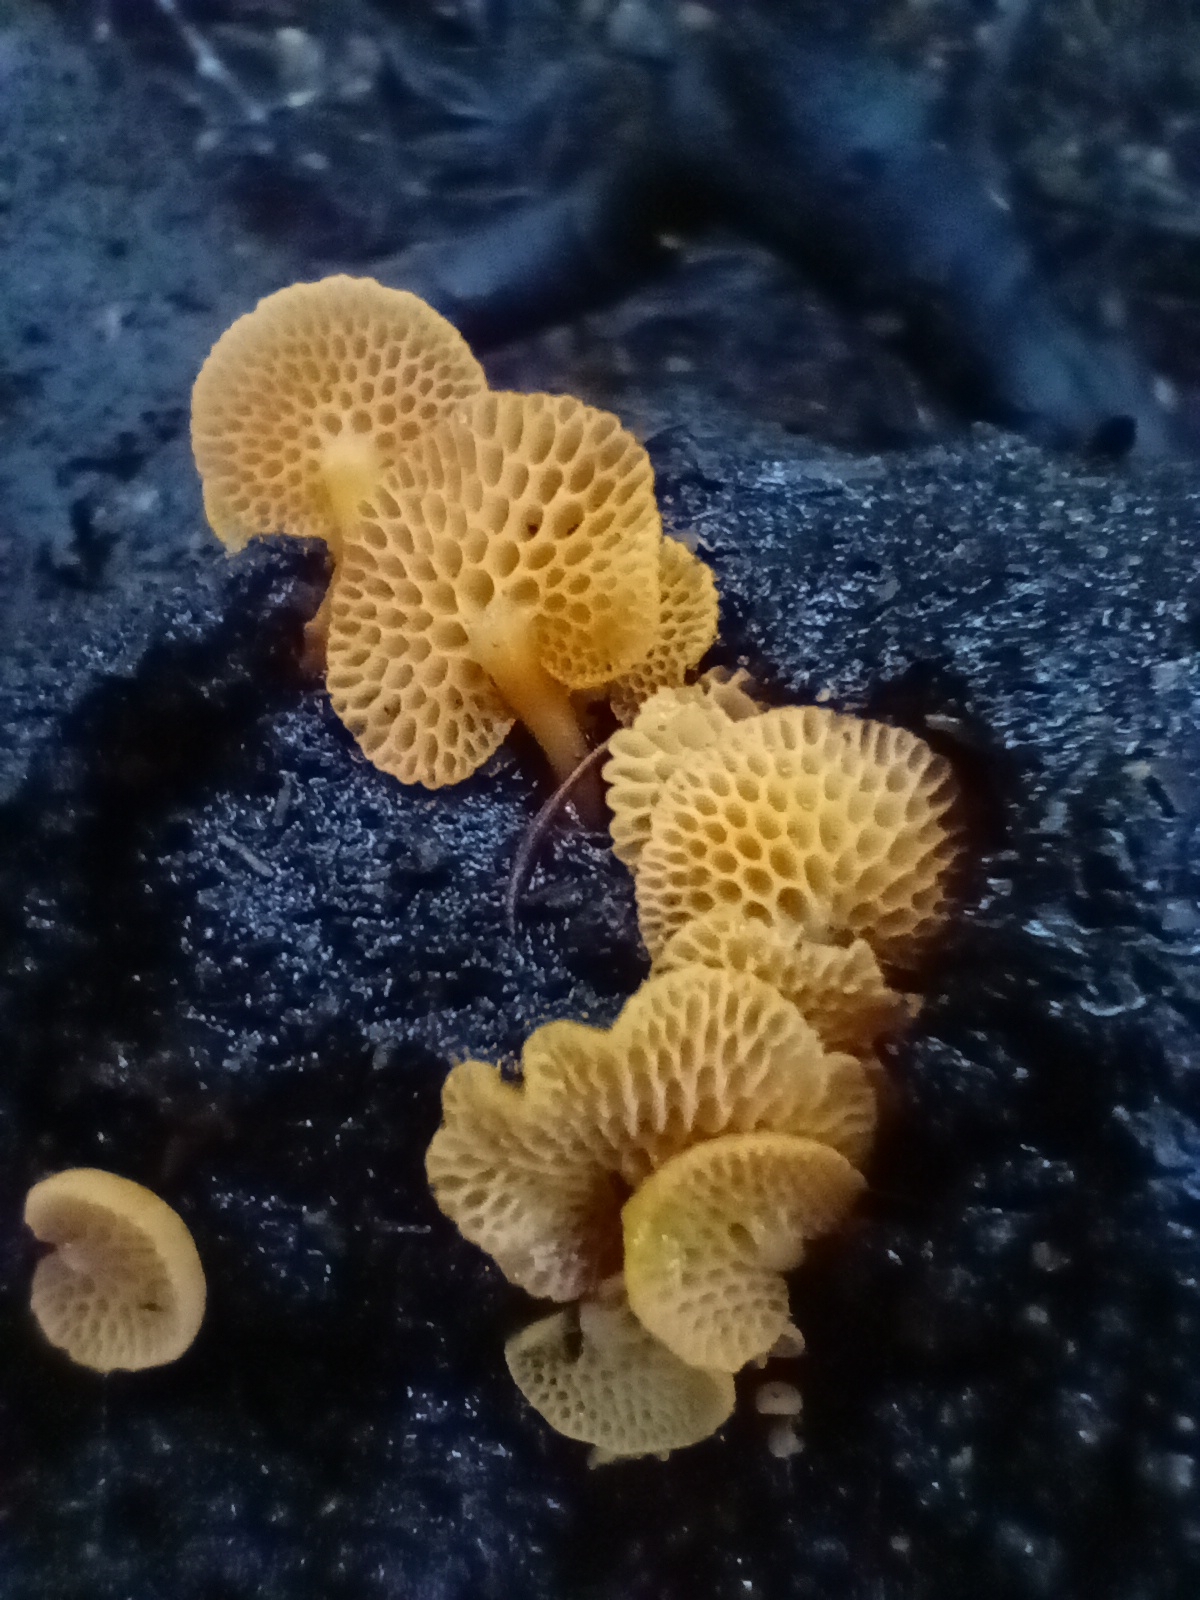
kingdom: Fungi
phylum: Basidiomycota
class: Agaricomycetes
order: Agaricales
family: Mycenaceae
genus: Favolaschia
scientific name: Favolaschia claudopus
